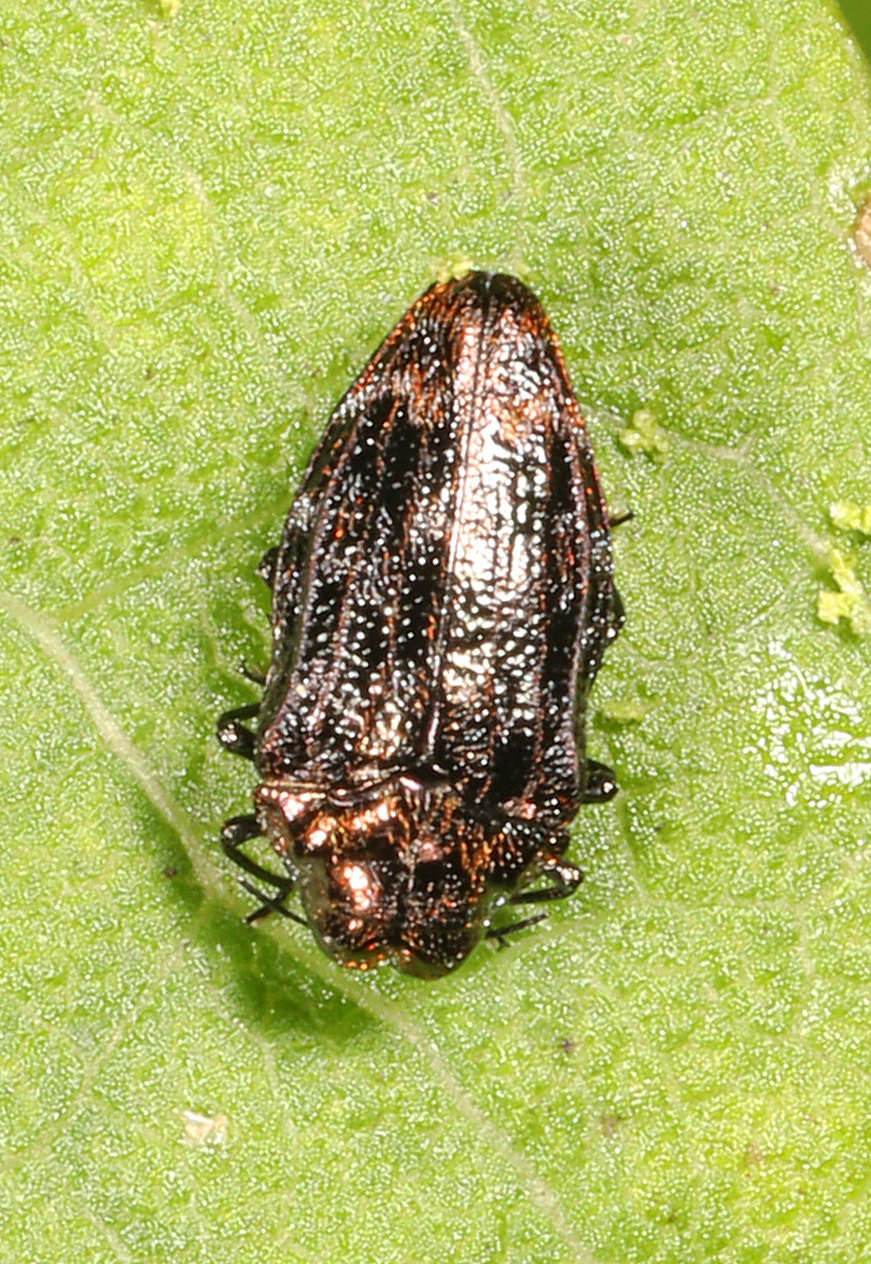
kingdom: Animalia
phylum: Arthropoda
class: Insecta
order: Coleoptera
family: Buprestidae
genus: Brachys
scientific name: Brachys ovatus
